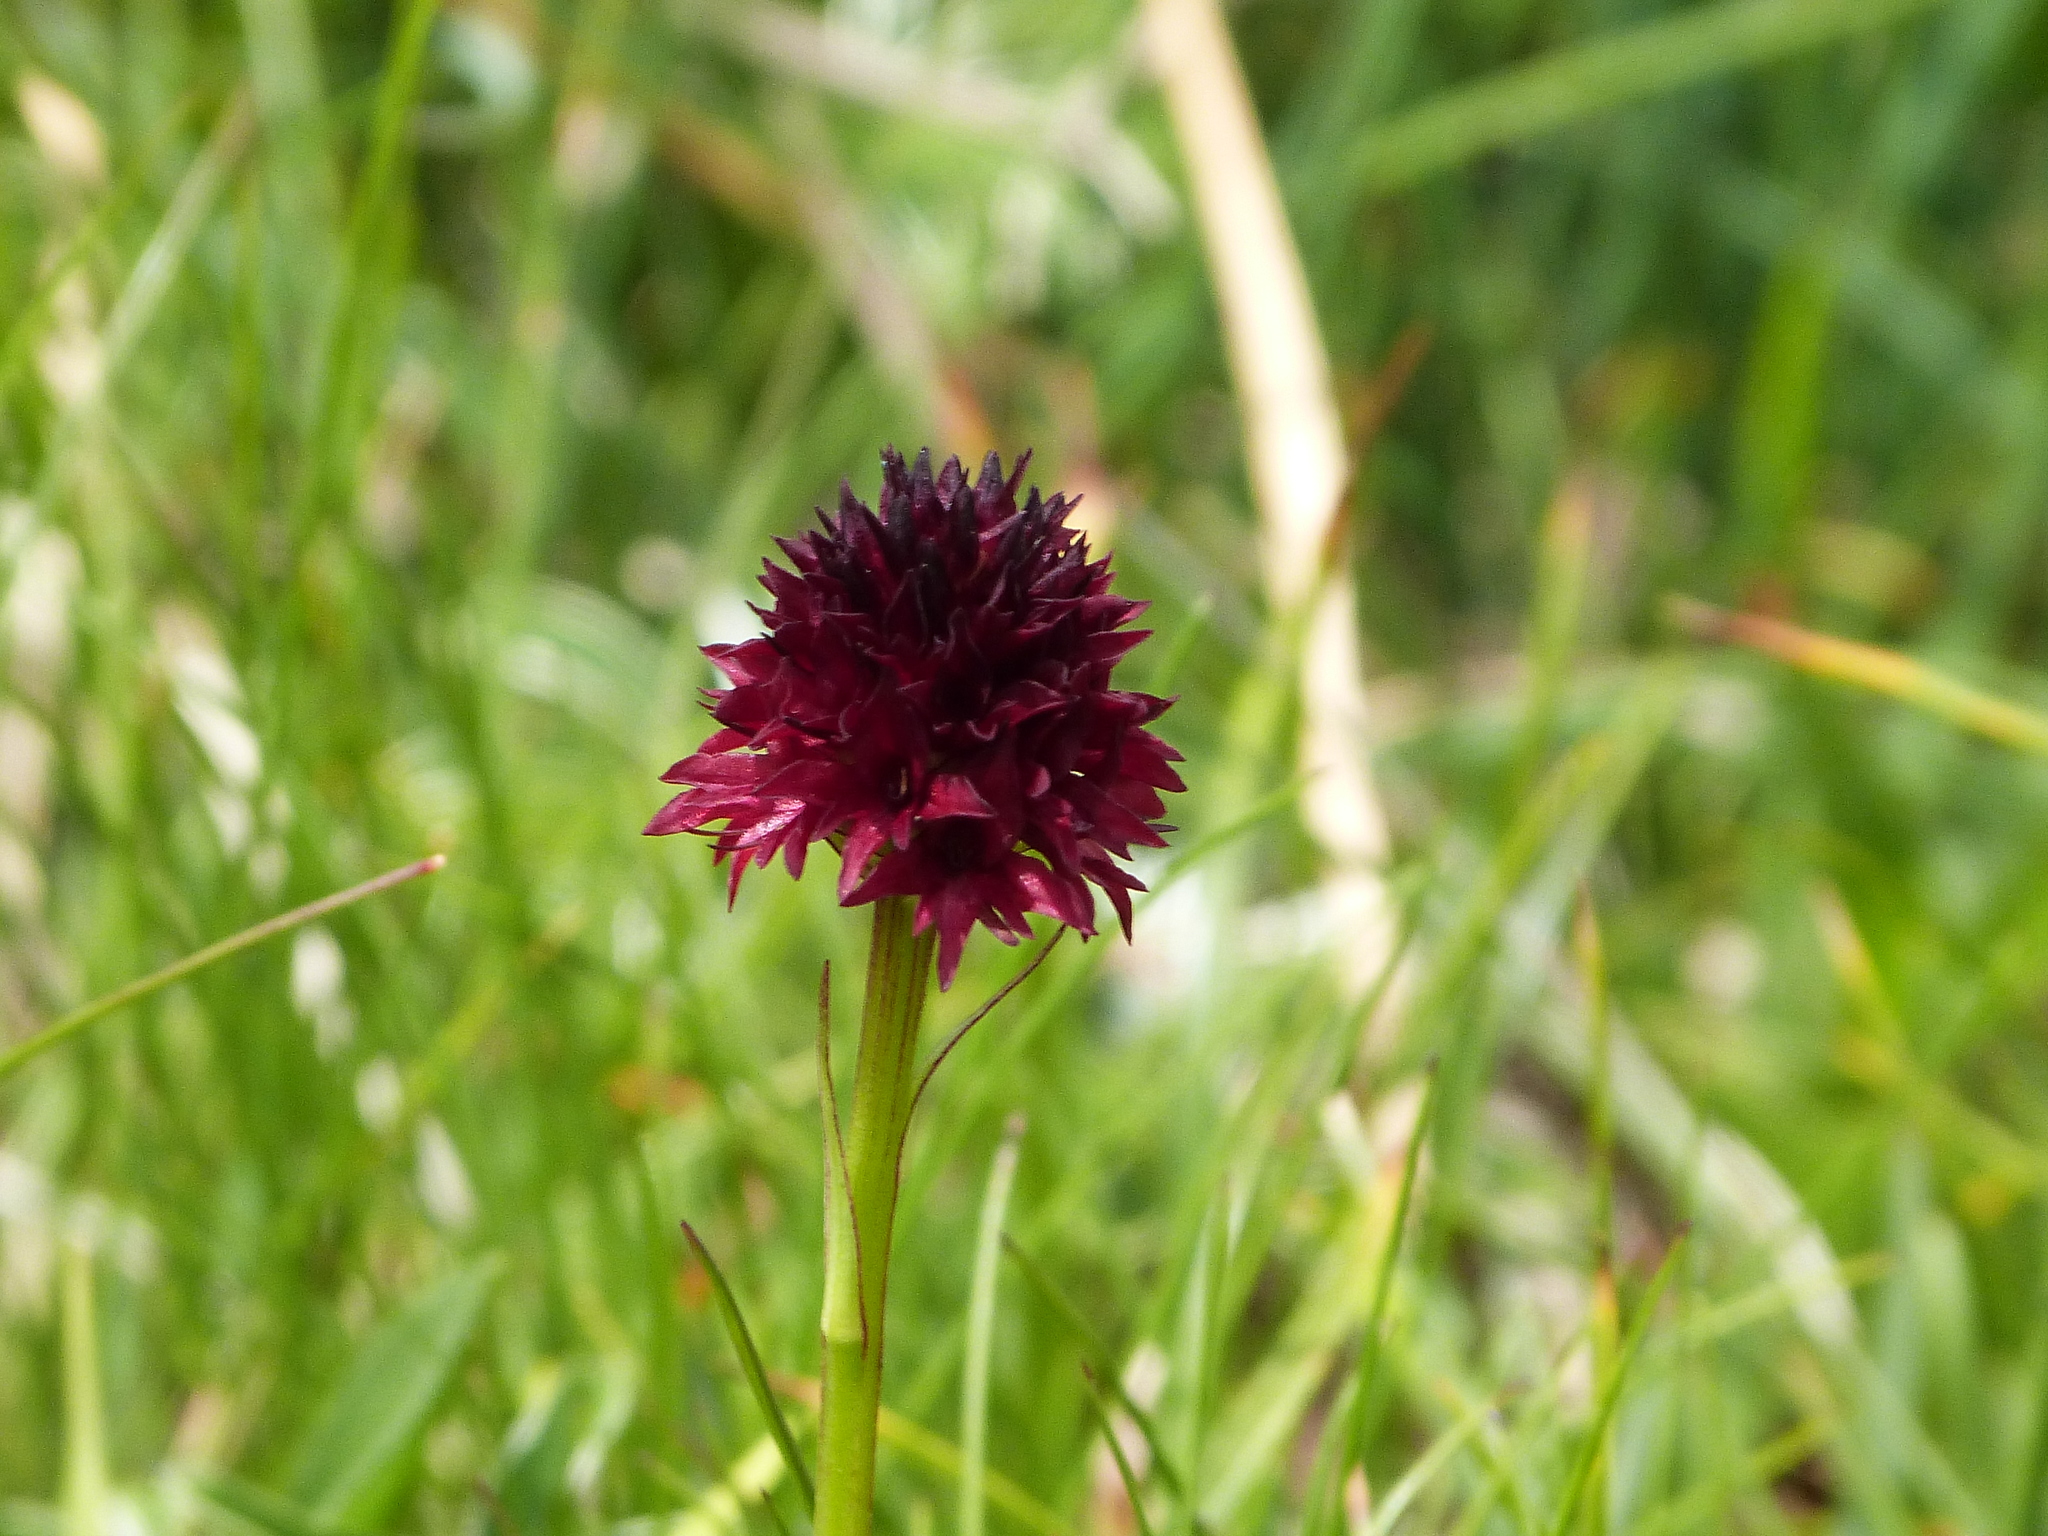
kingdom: Plantae
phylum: Tracheophyta
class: Liliopsida
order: Asparagales
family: Orchidaceae
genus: Gymnadenia
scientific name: Gymnadenia rhellicani
